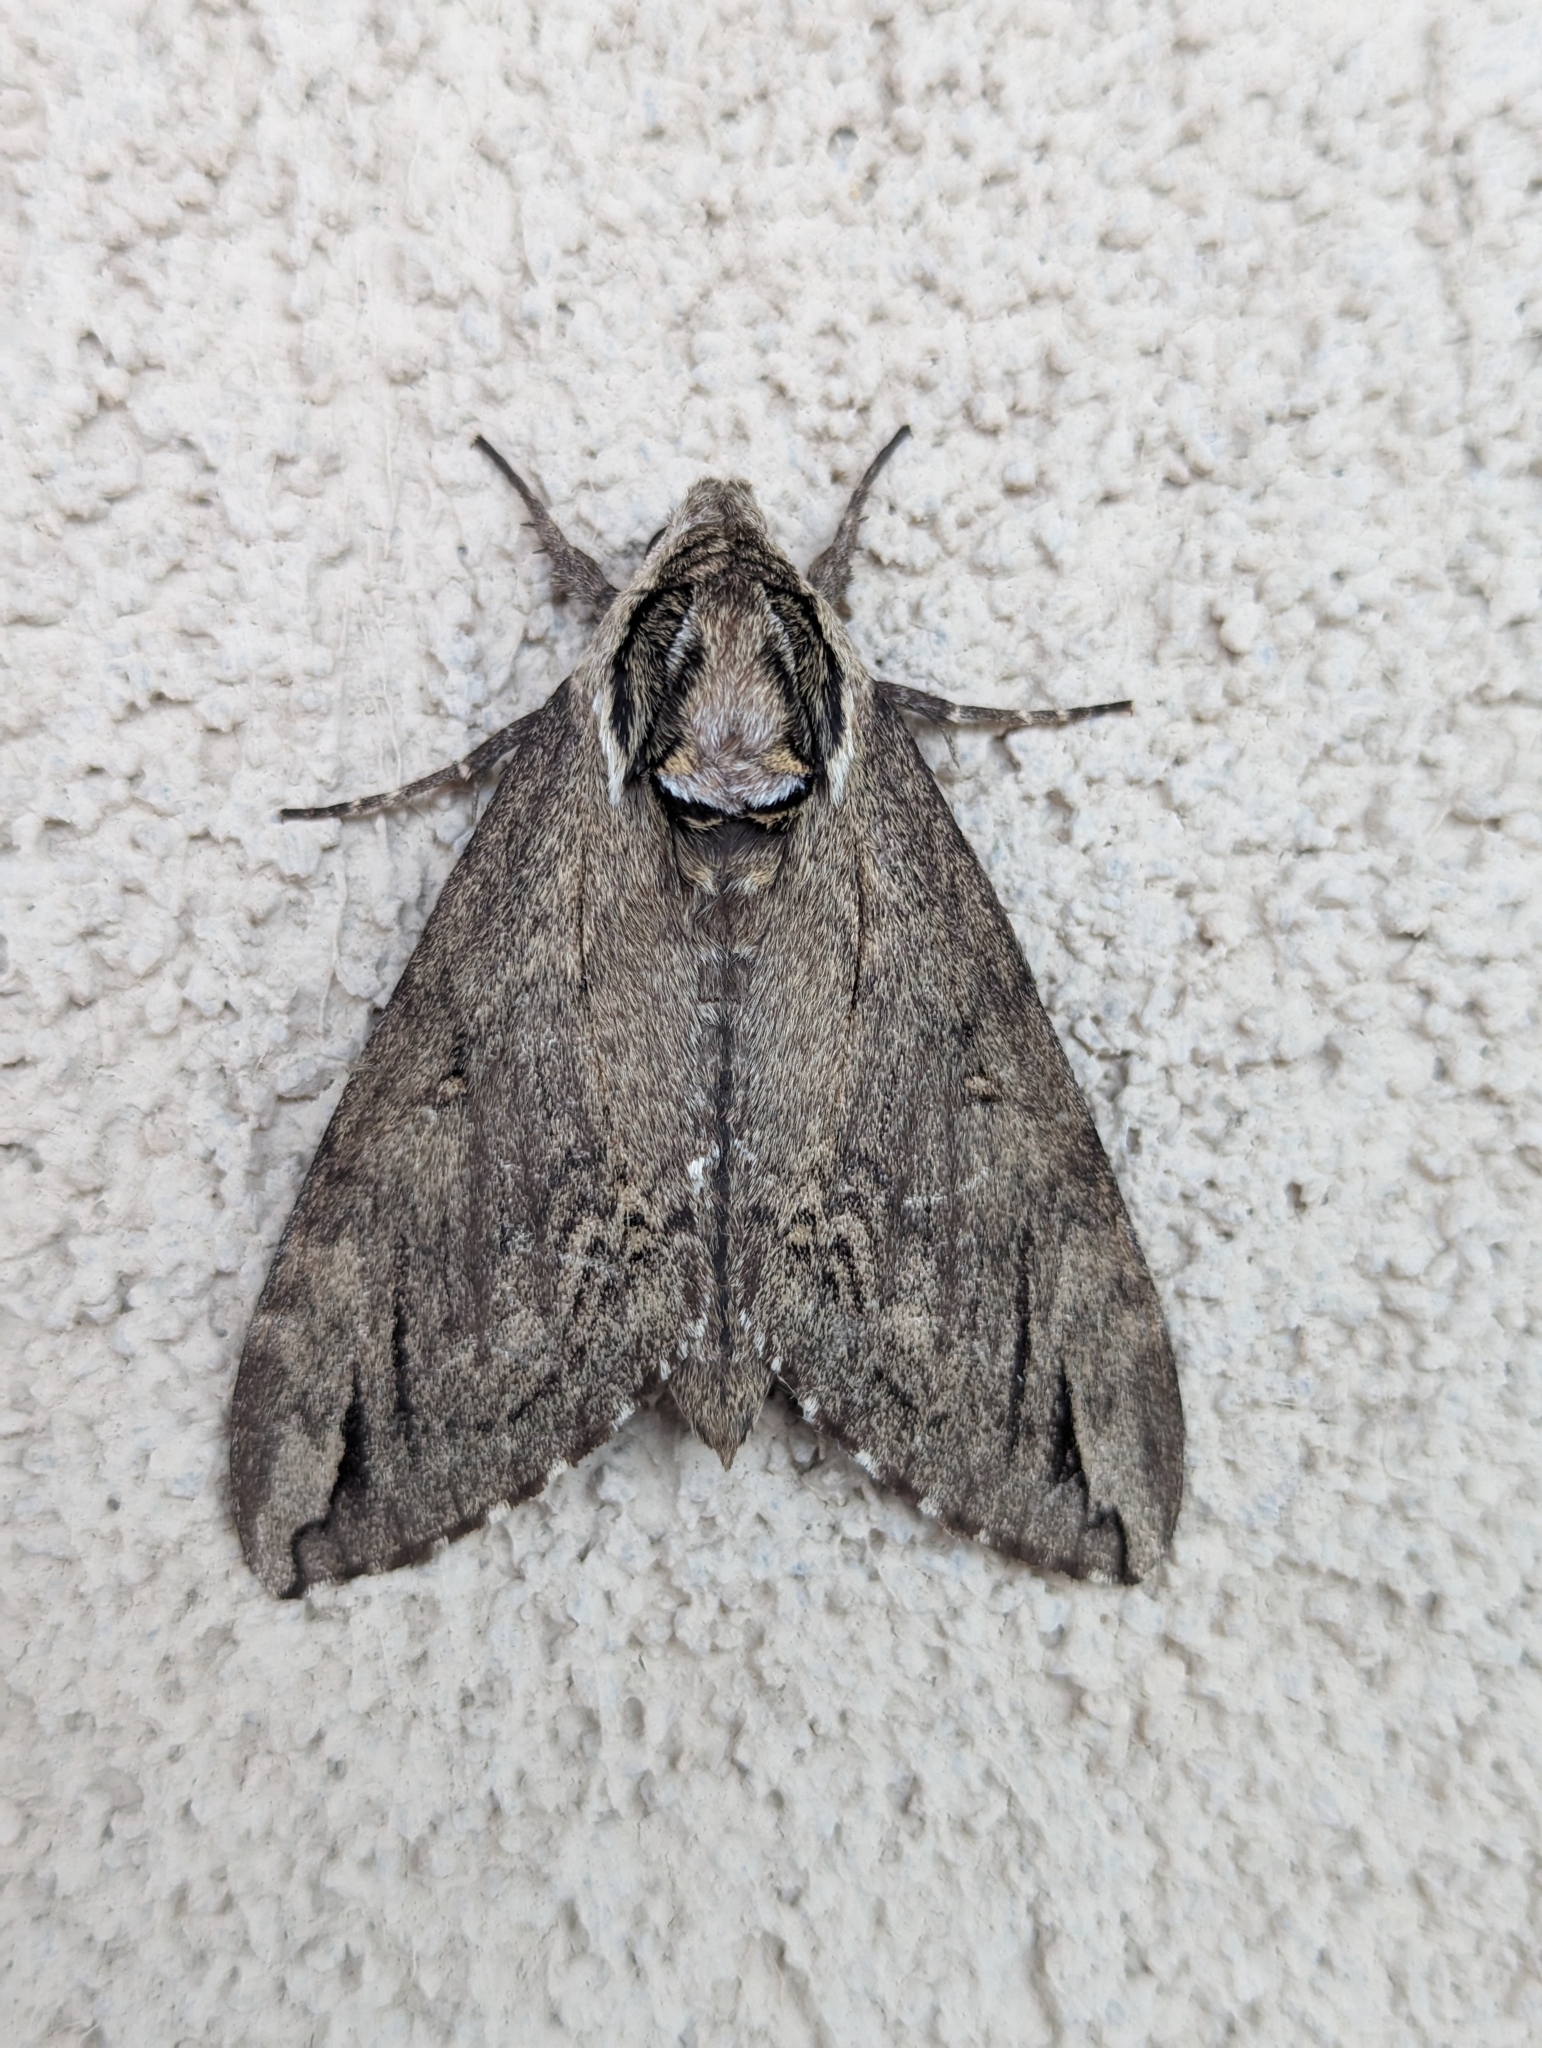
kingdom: Animalia
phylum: Arthropoda
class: Insecta
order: Lepidoptera
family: Sphingidae
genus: Ceratomia
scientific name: Ceratomia catalpae
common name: Catalpa hornworm
